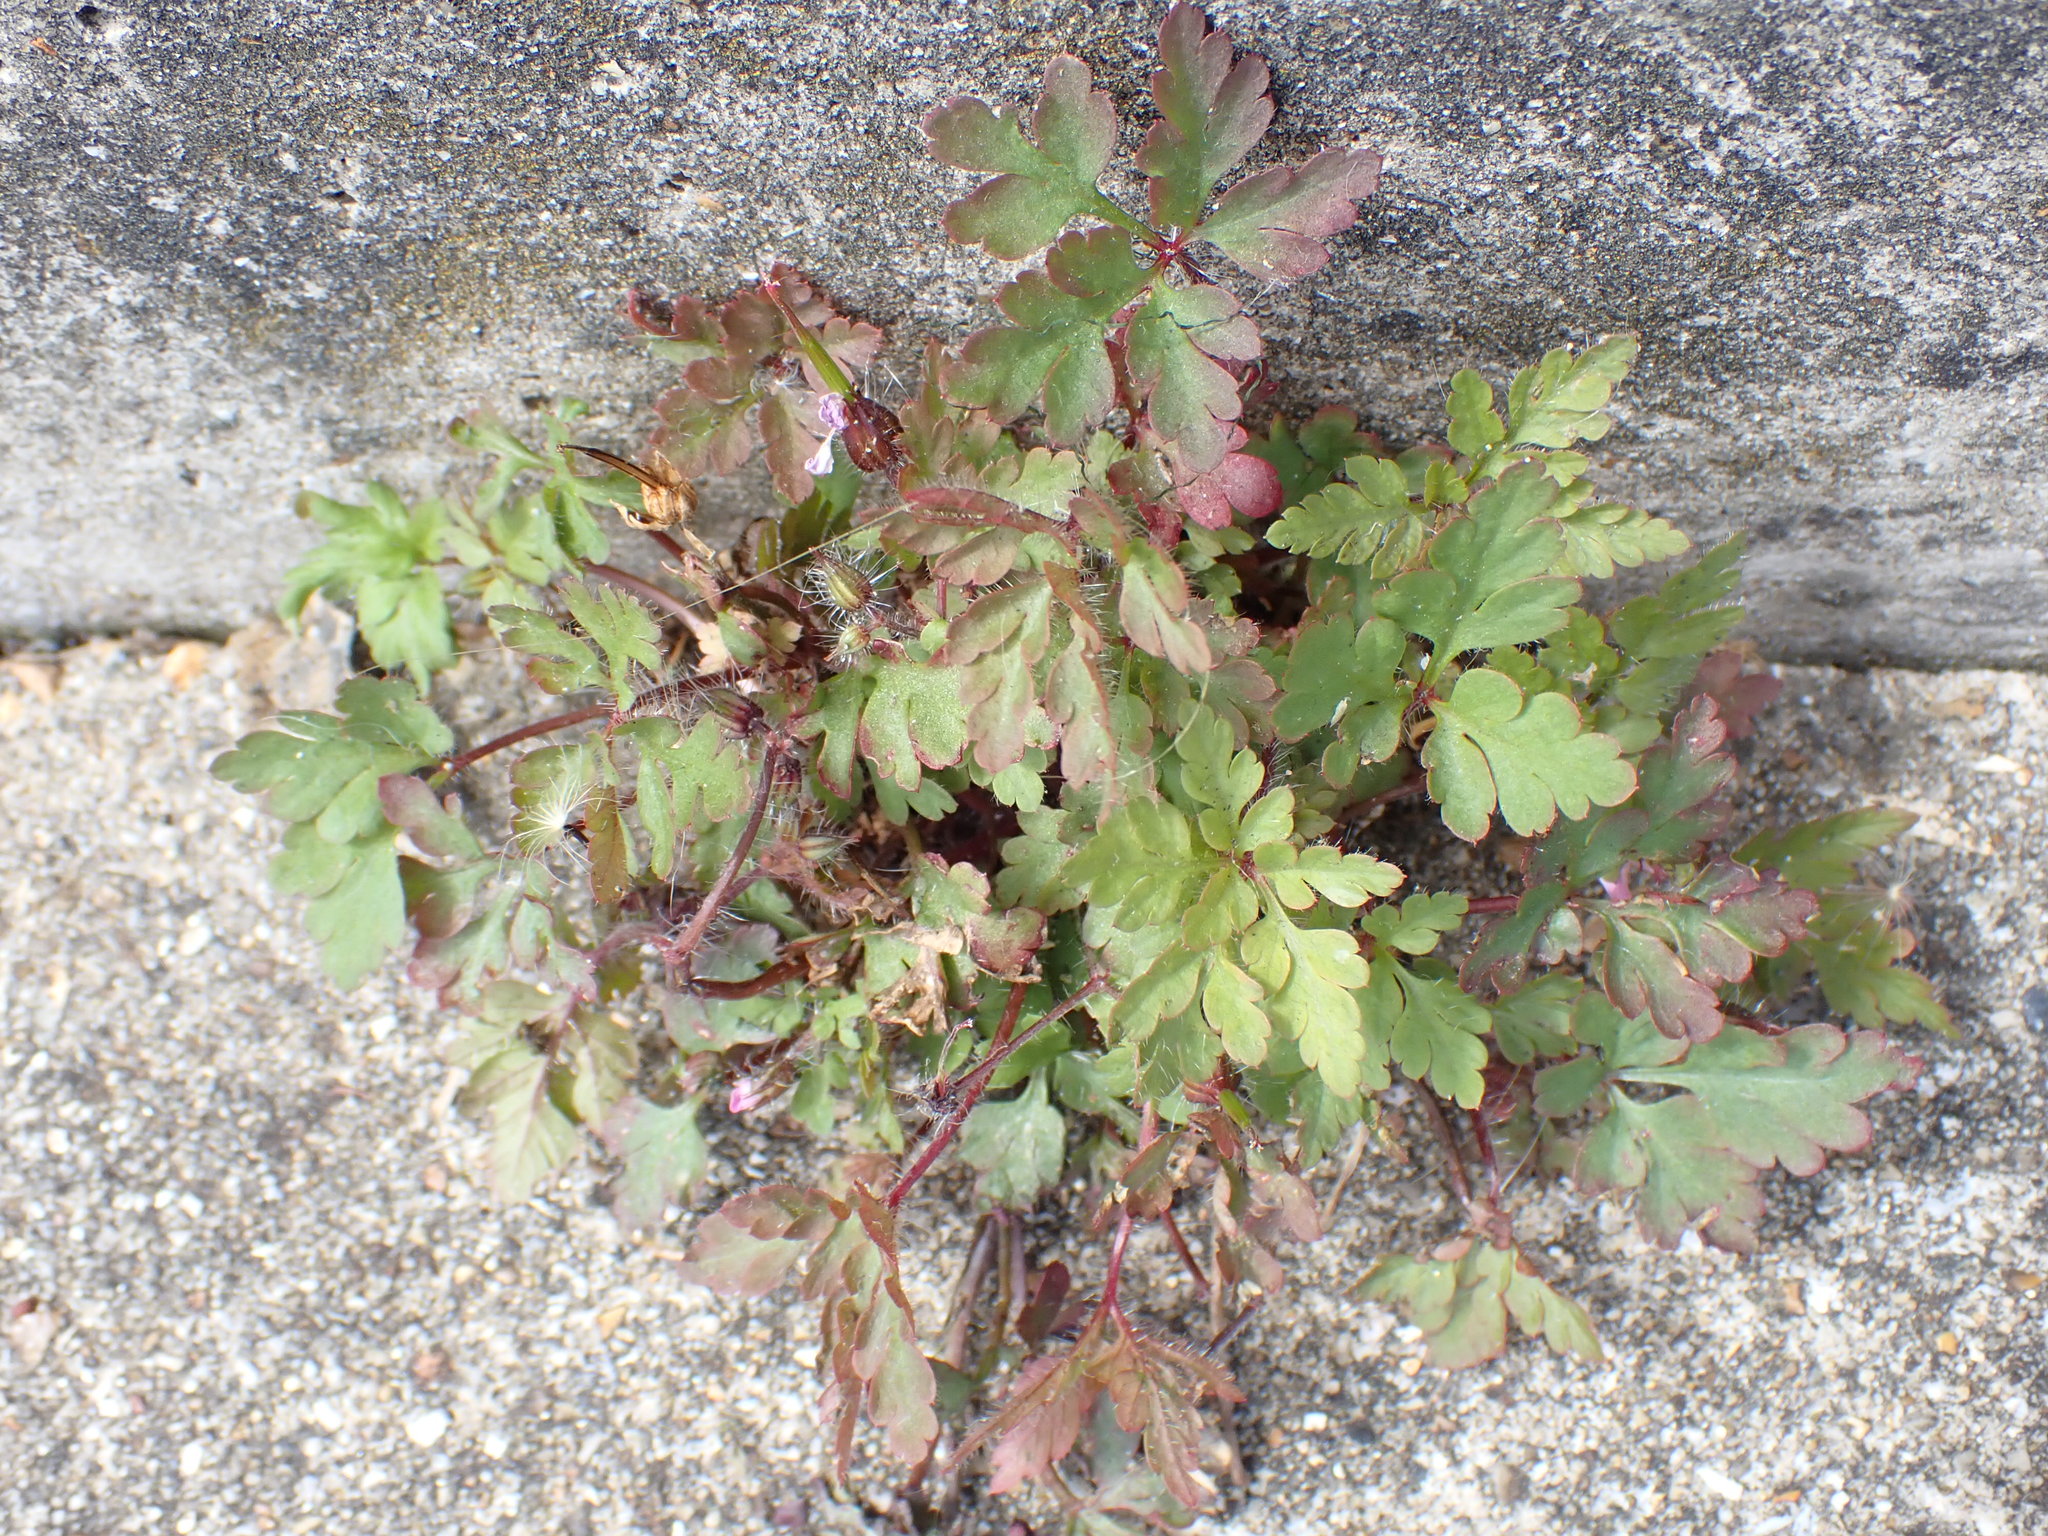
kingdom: Plantae
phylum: Tracheophyta
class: Magnoliopsida
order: Geraniales
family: Geraniaceae
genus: Geranium
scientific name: Geranium robertianum
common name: Herb-robert
